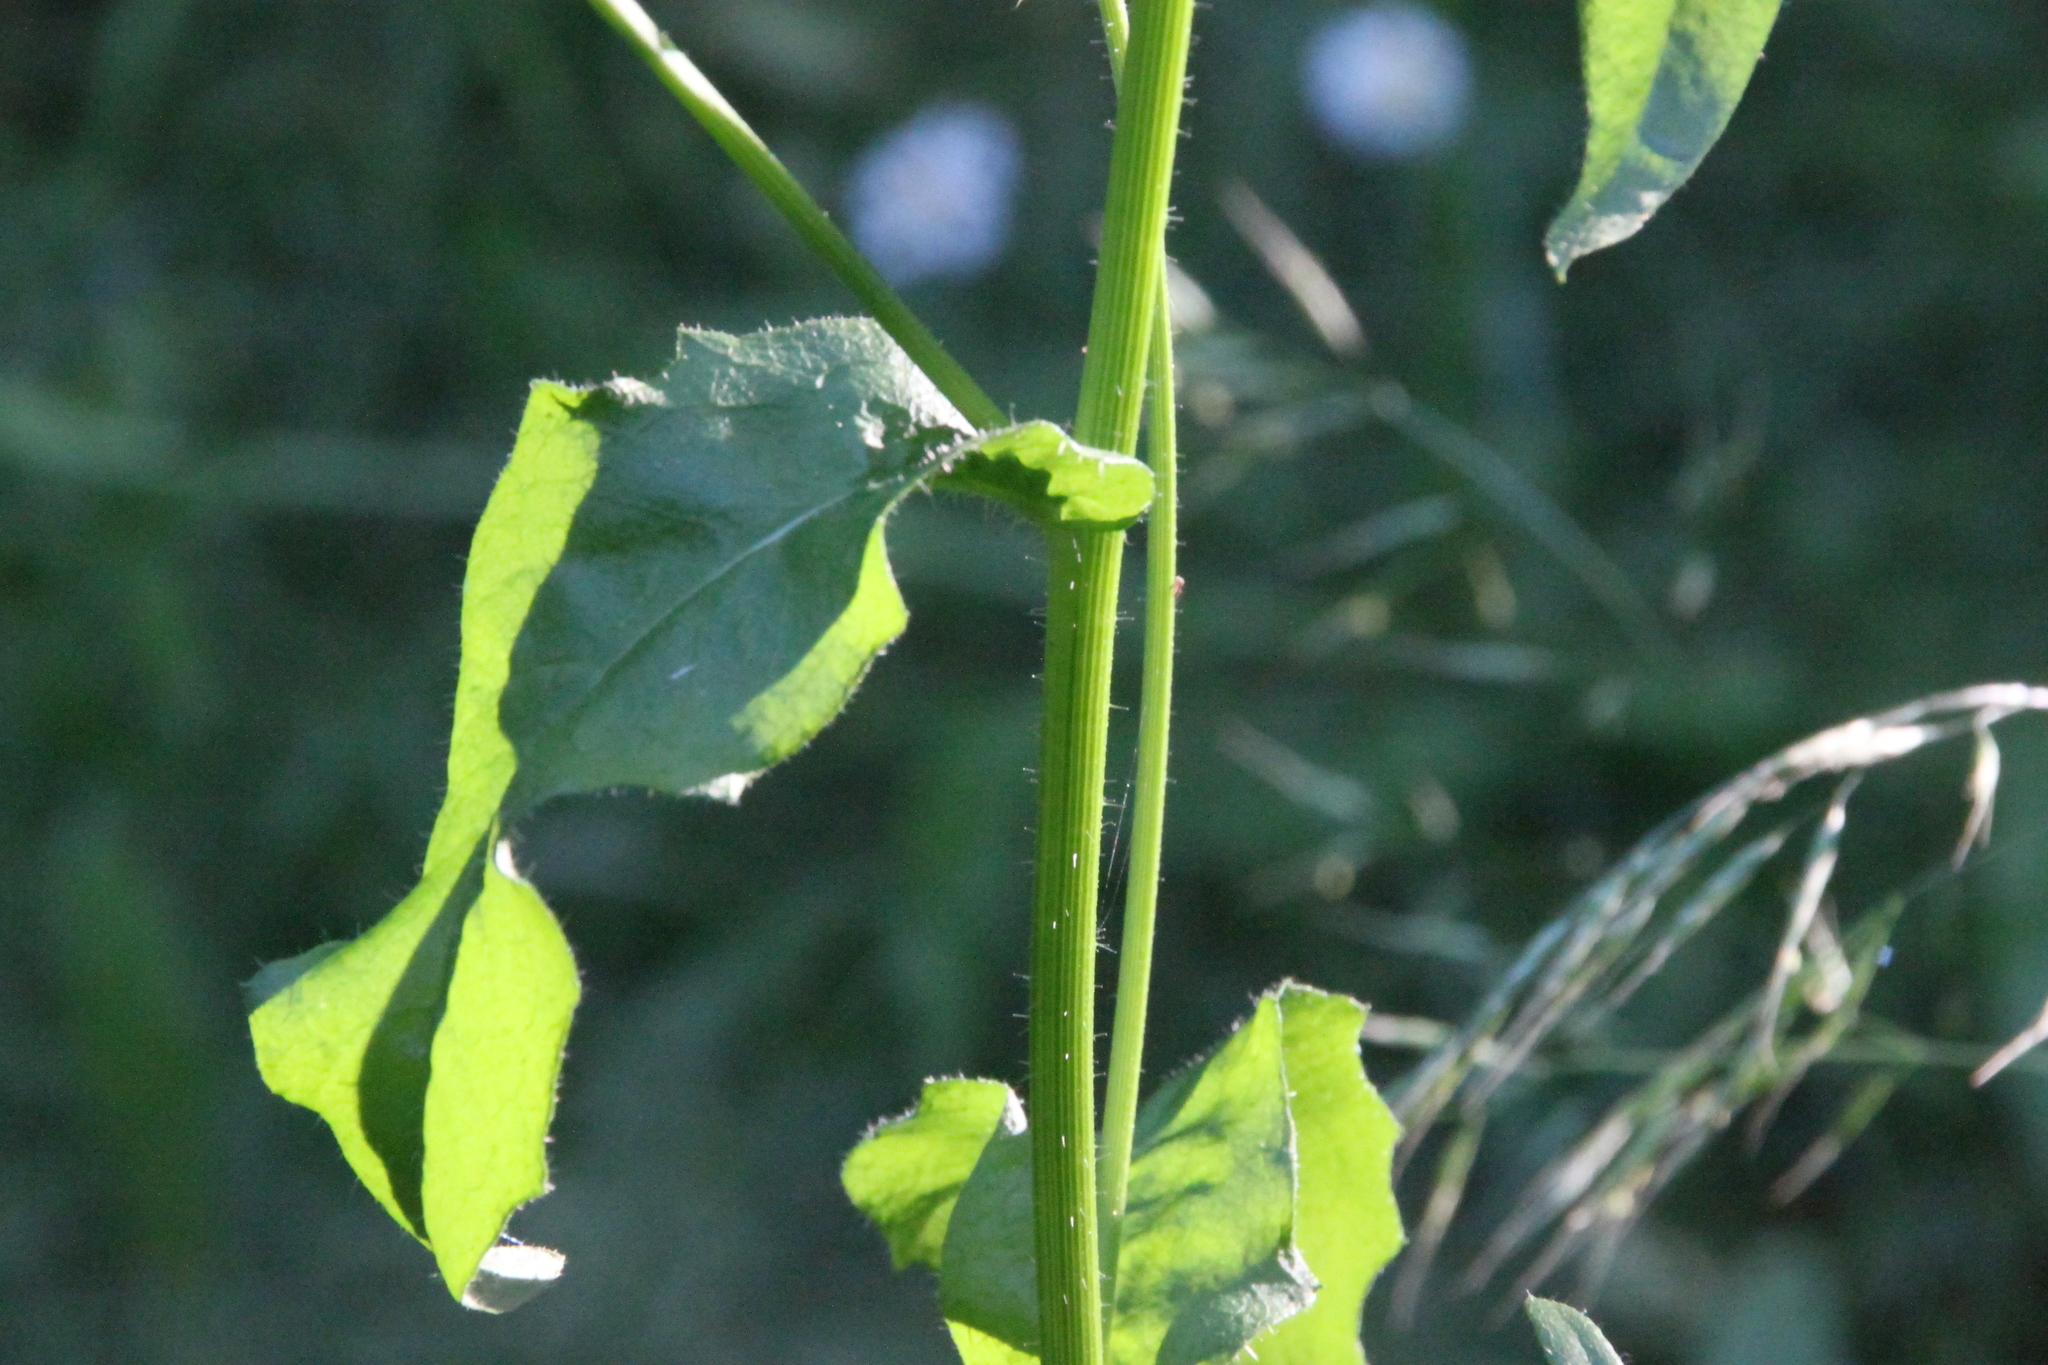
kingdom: Plantae
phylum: Tracheophyta
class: Magnoliopsida
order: Asterales
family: Asteraceae
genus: Picris
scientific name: Picris hieracioides
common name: Hawkweed oxtongue
